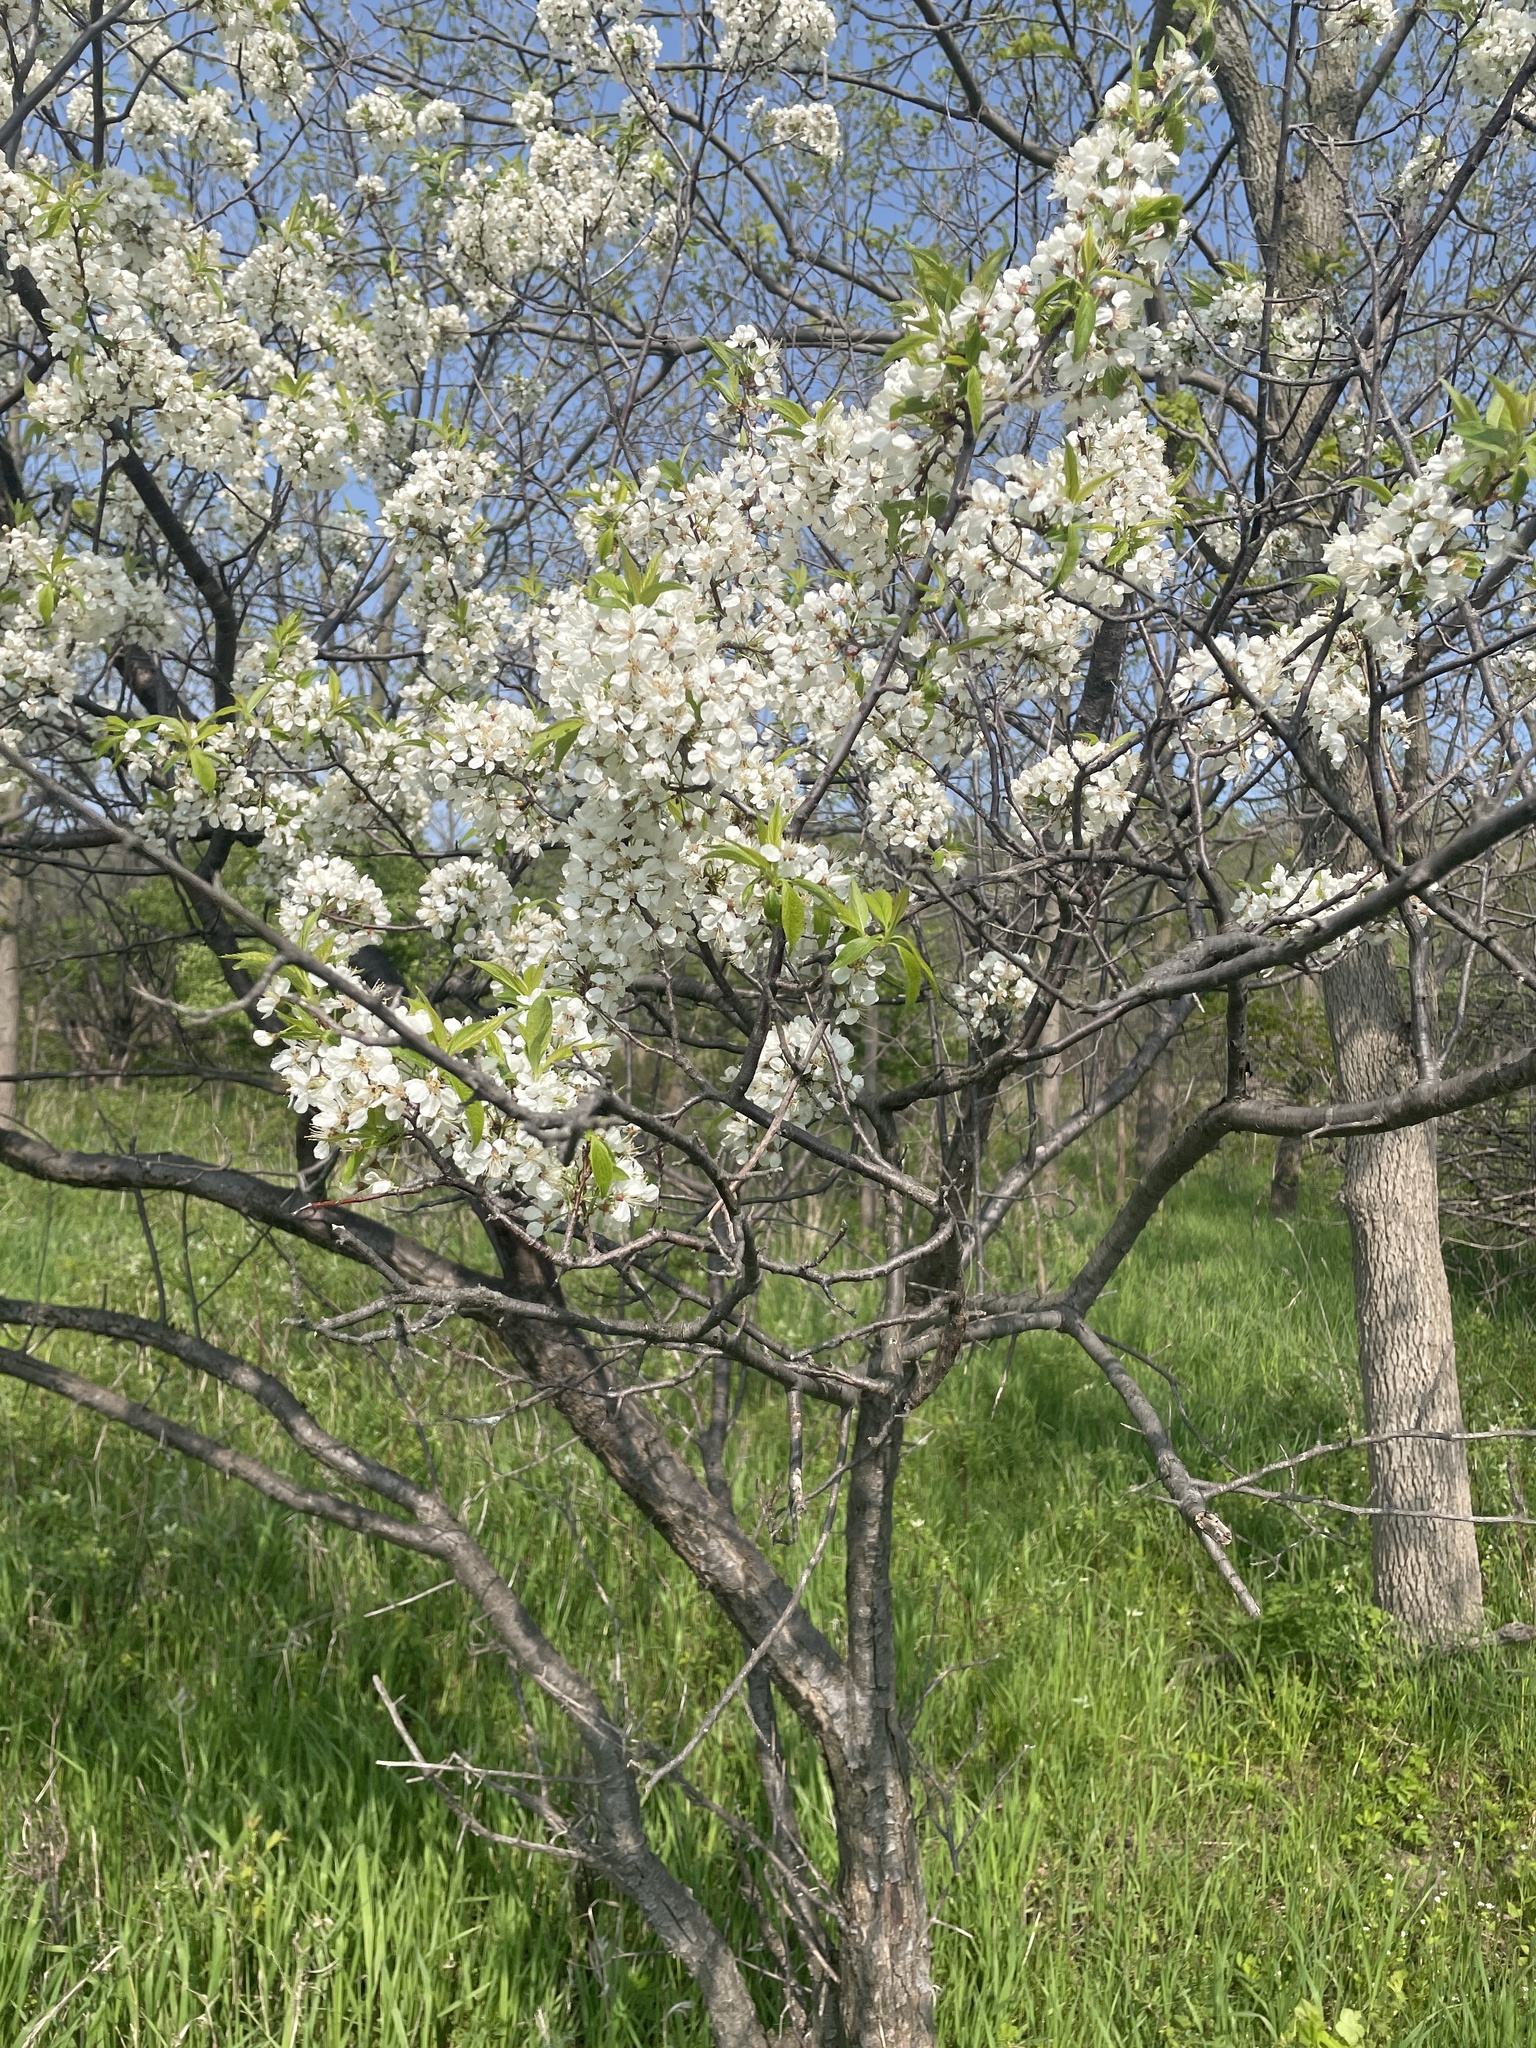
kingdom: Plantae
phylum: Tracheophyta
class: Magnoliopsida
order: Rosales
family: Rosaceae
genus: Prunus
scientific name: Prunus americana
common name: American plum
